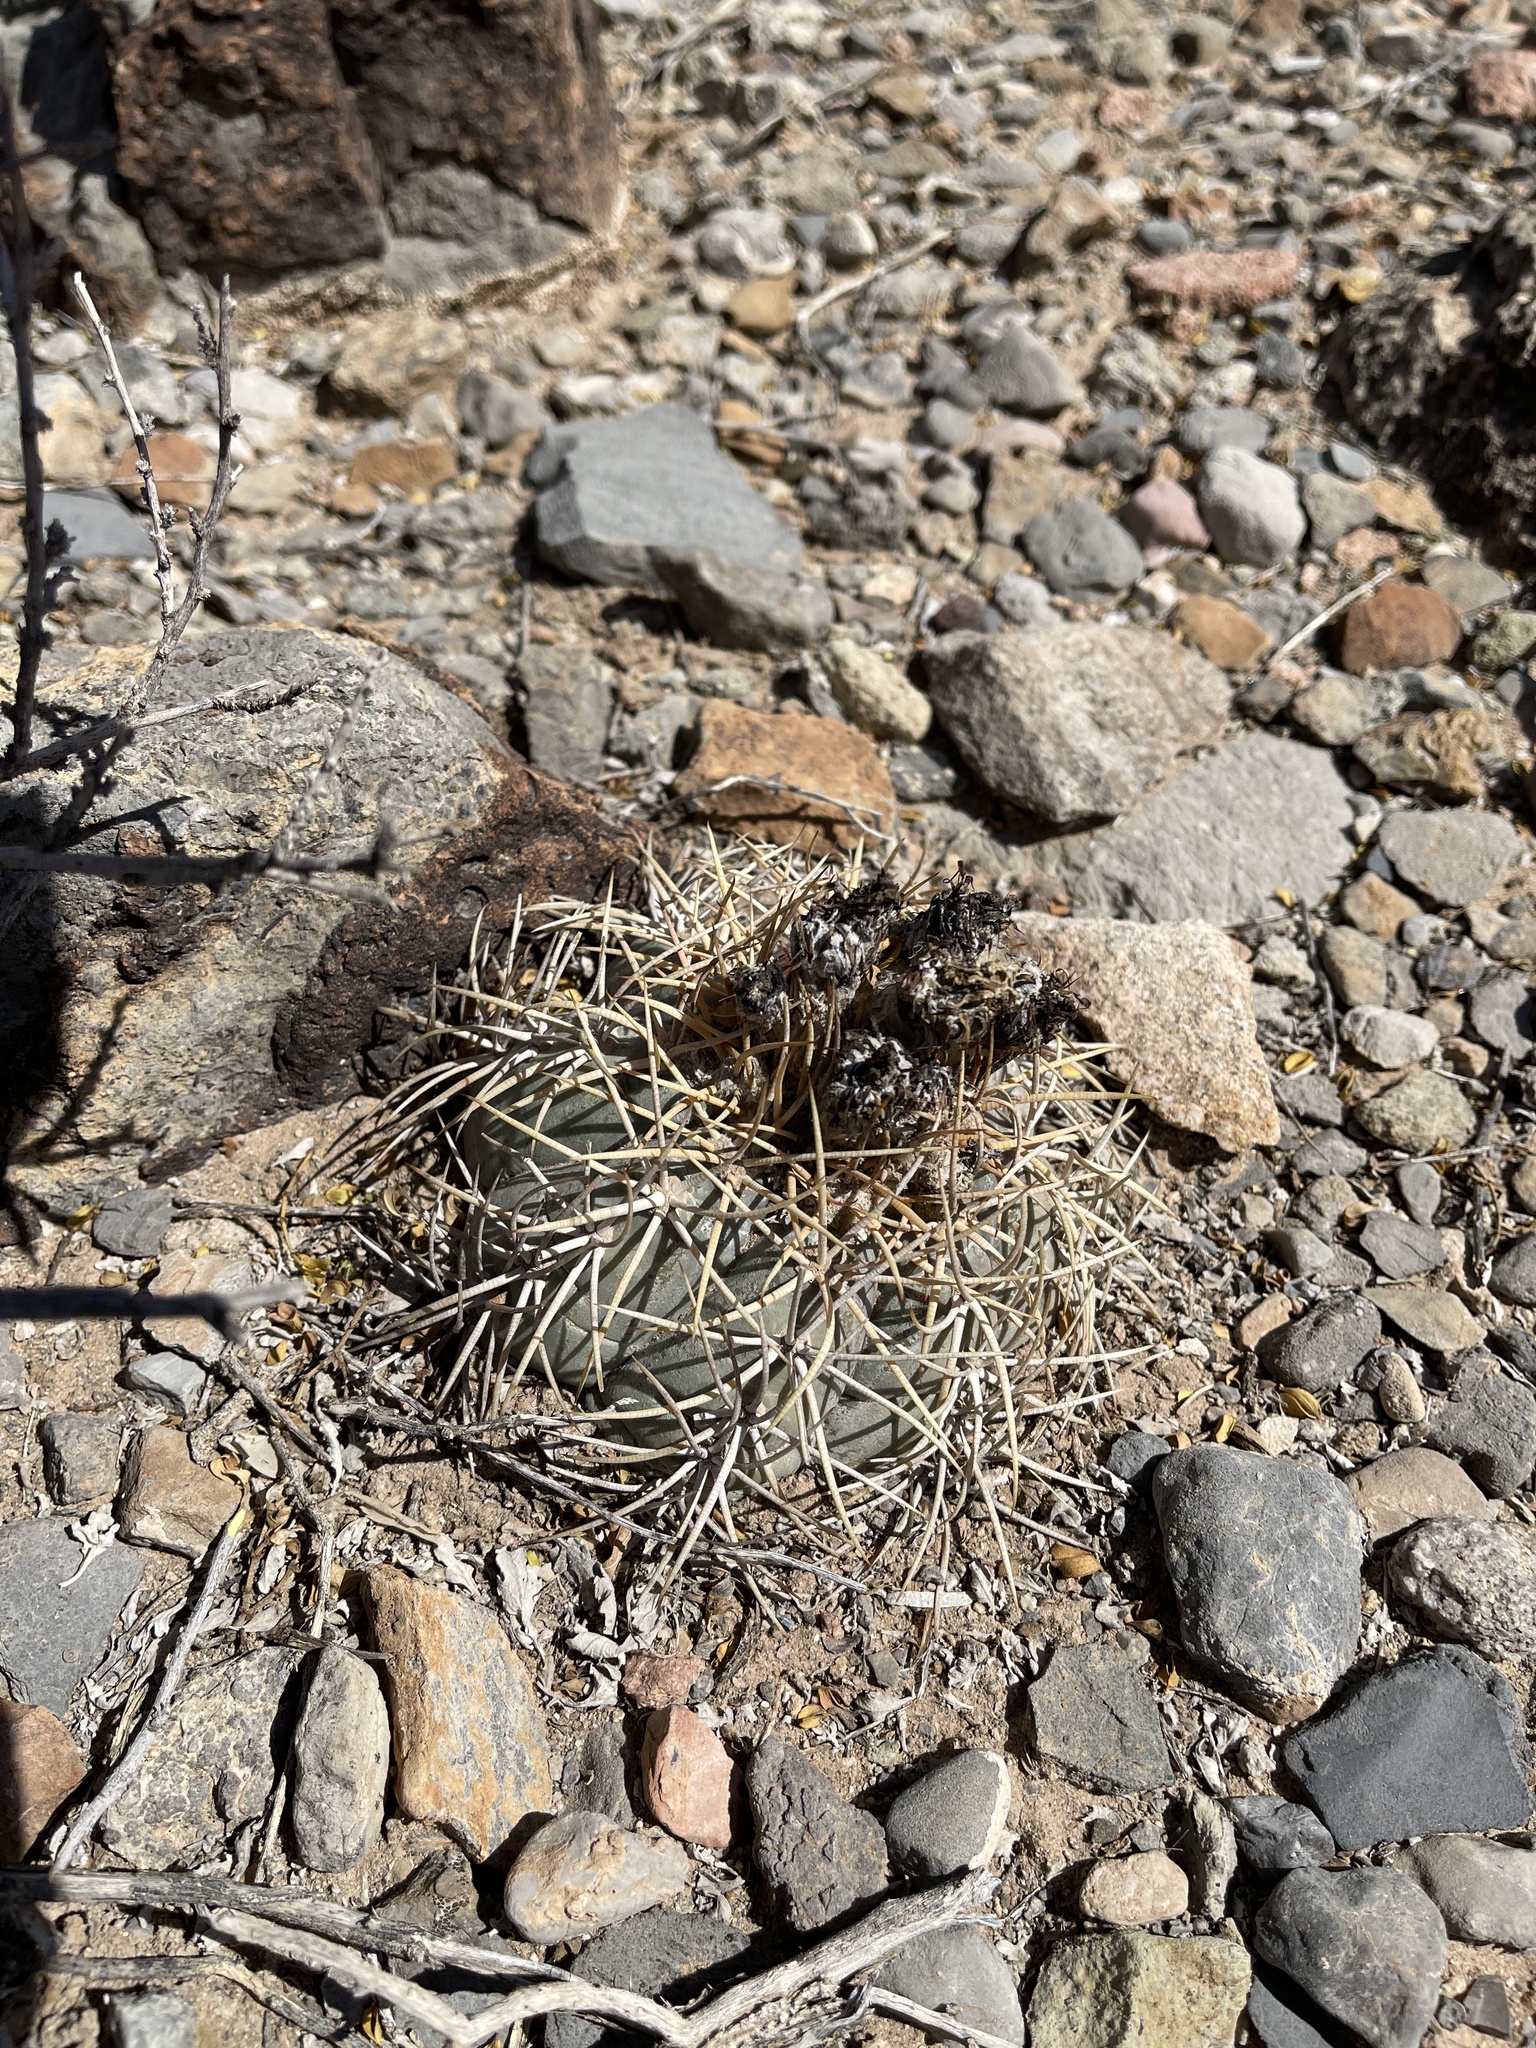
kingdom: Plantae
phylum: Tracheophyta
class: Magnoliopsida
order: Caryophyllales
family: Cactaceae
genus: Echinocactus
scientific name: Echinocactus horizonthalonius
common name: Devilshead
